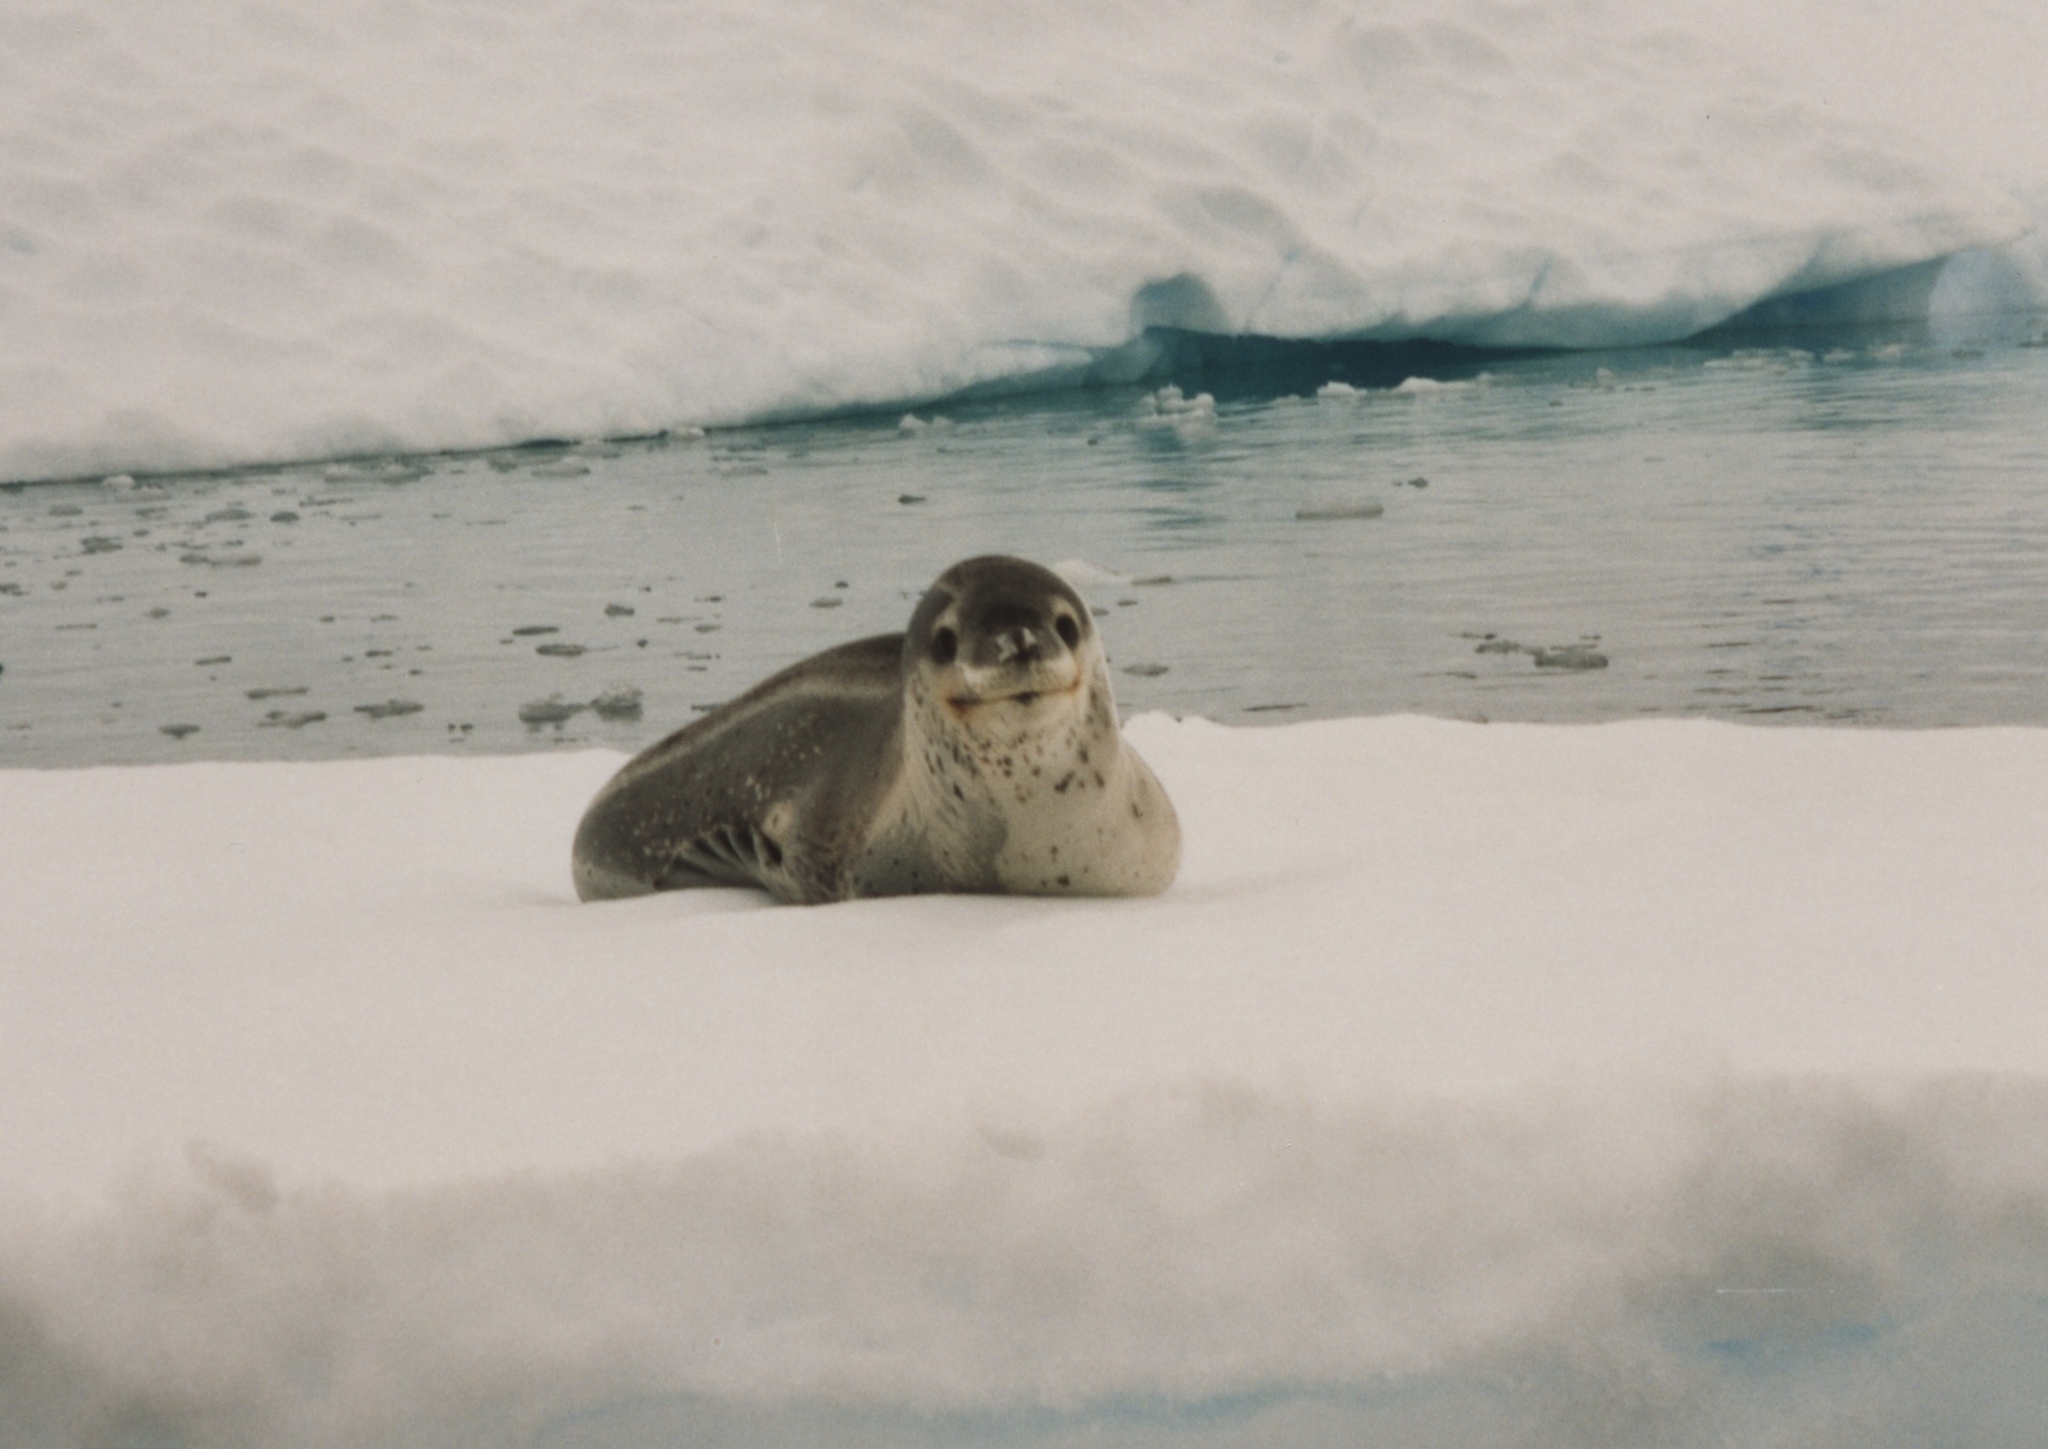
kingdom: Animalia
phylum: Chordata
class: Mammalia
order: Carnivora
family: Phocidae
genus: Hydrurga
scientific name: Hydrurga leptonyx
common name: Leopard seal
